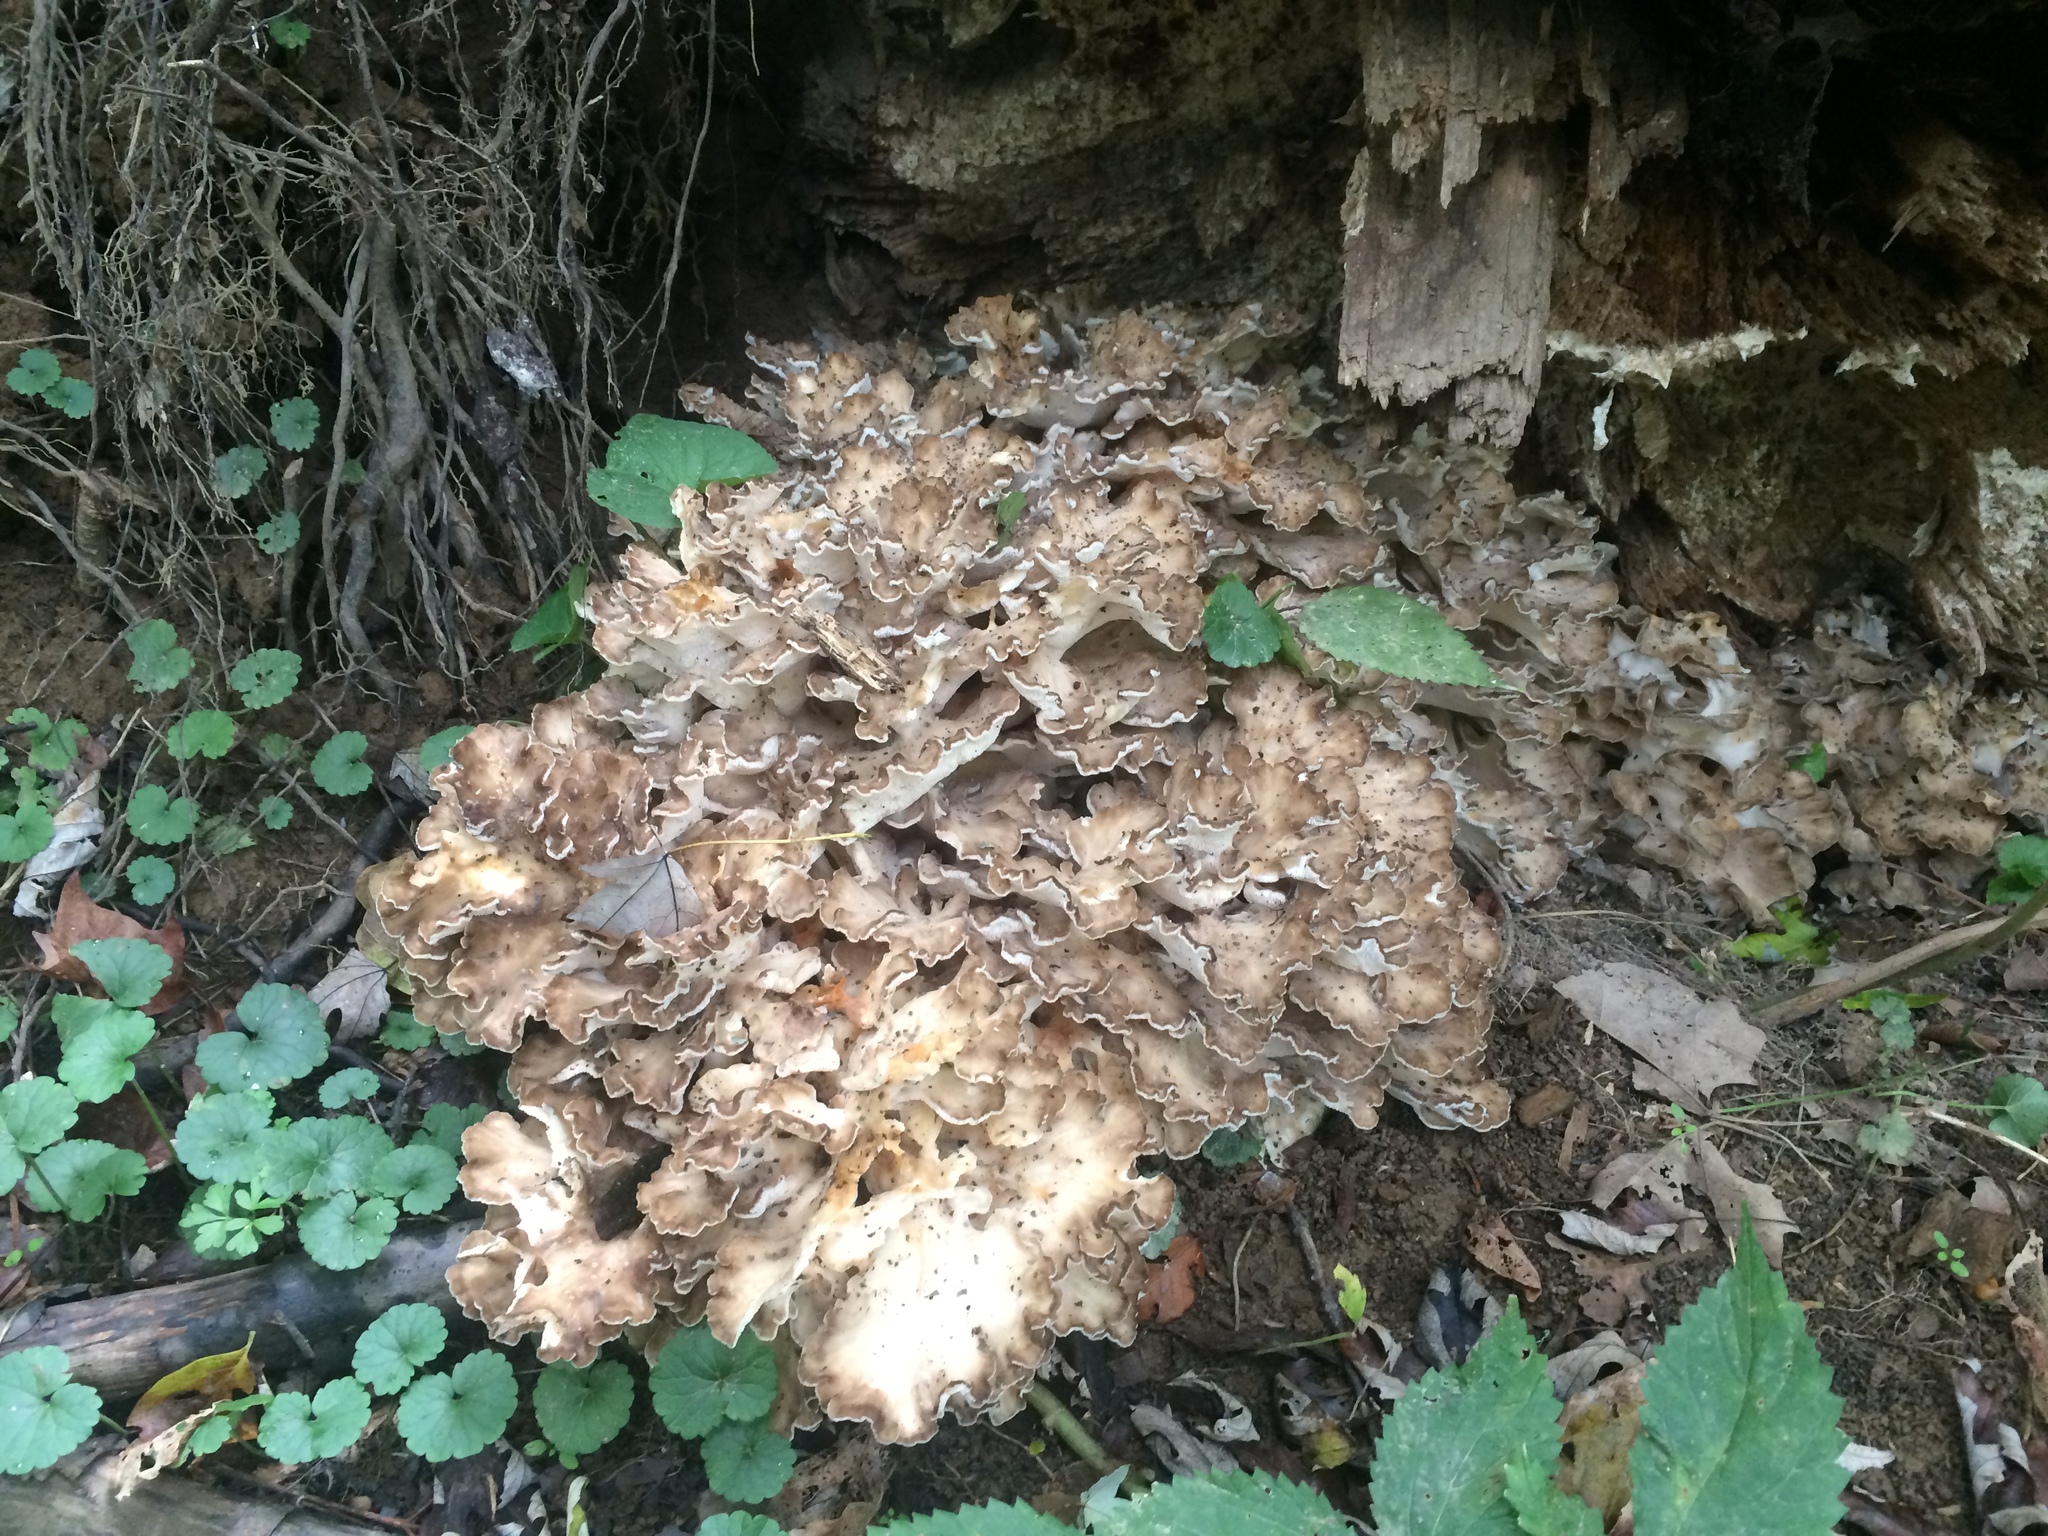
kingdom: Fungi
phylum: Basidiomycota
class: Agaricomycetes
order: Polyporales
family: Grifolaceae
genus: Grifola
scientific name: Grifola frondosa
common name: Hen of the woods
